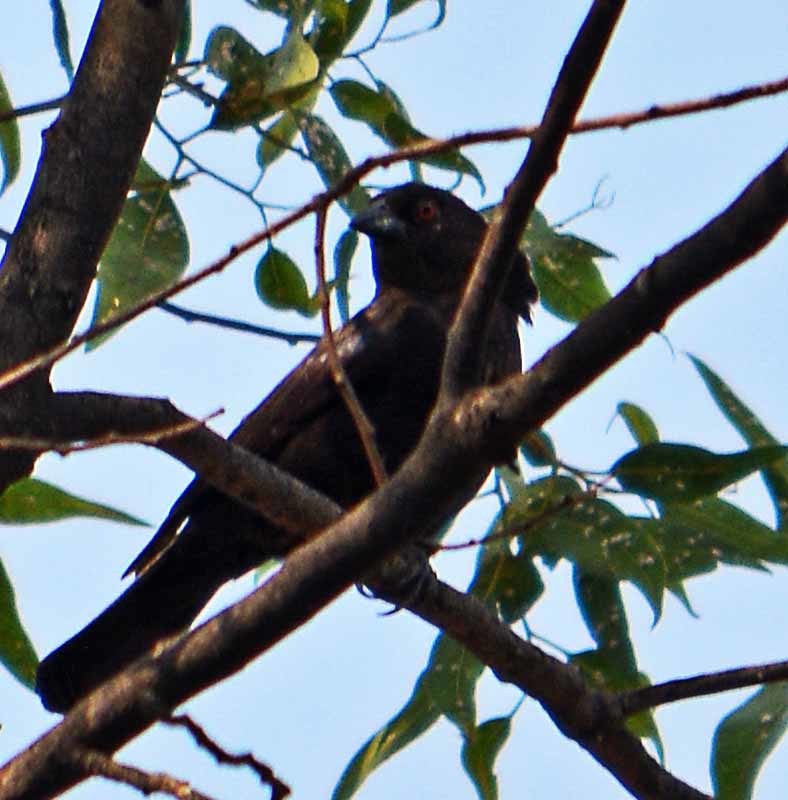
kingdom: Animalia
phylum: Chordata
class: Aves
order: Passeriformes
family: Icteridae
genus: Molothrus
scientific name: Molothrus aeneus
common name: Bronzed cowbird
